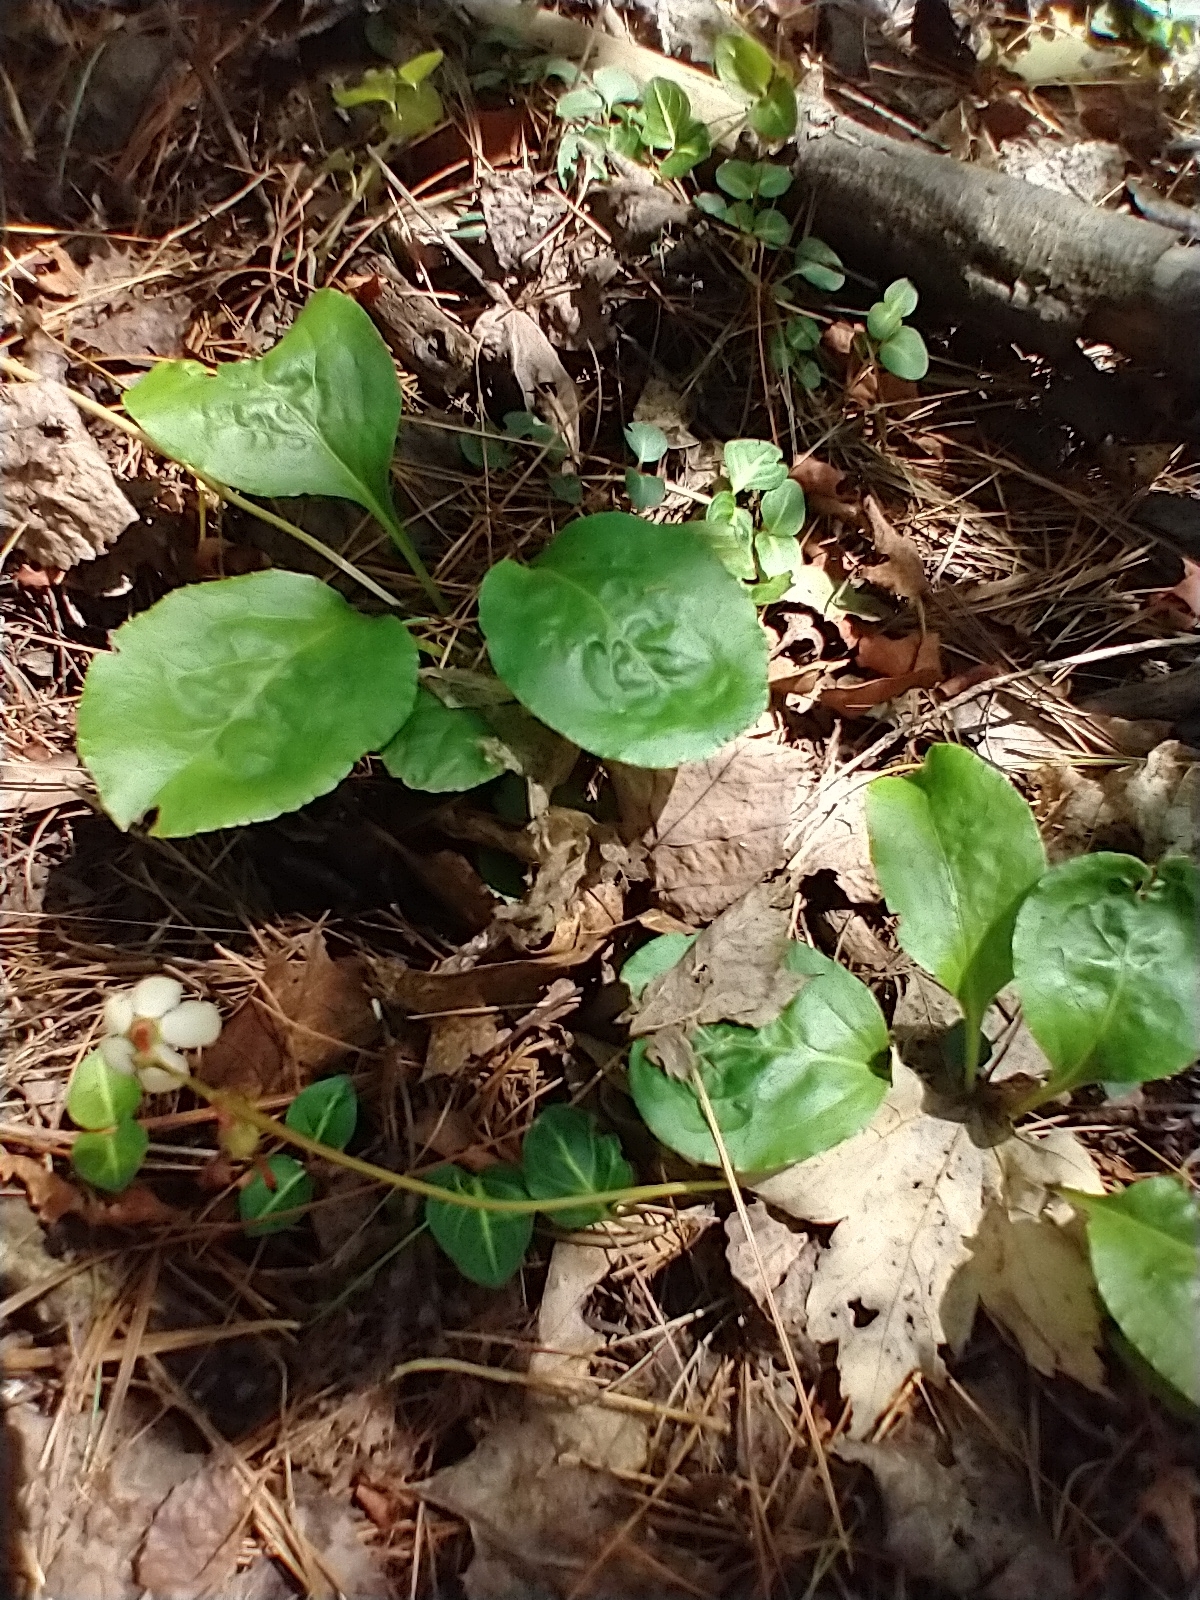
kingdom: Plantae
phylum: Tracheophyta
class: Magnoliopsida
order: Ericales
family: Ericaceae
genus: Pyrola
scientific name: Pyrola elliptica
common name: Shinleaf
